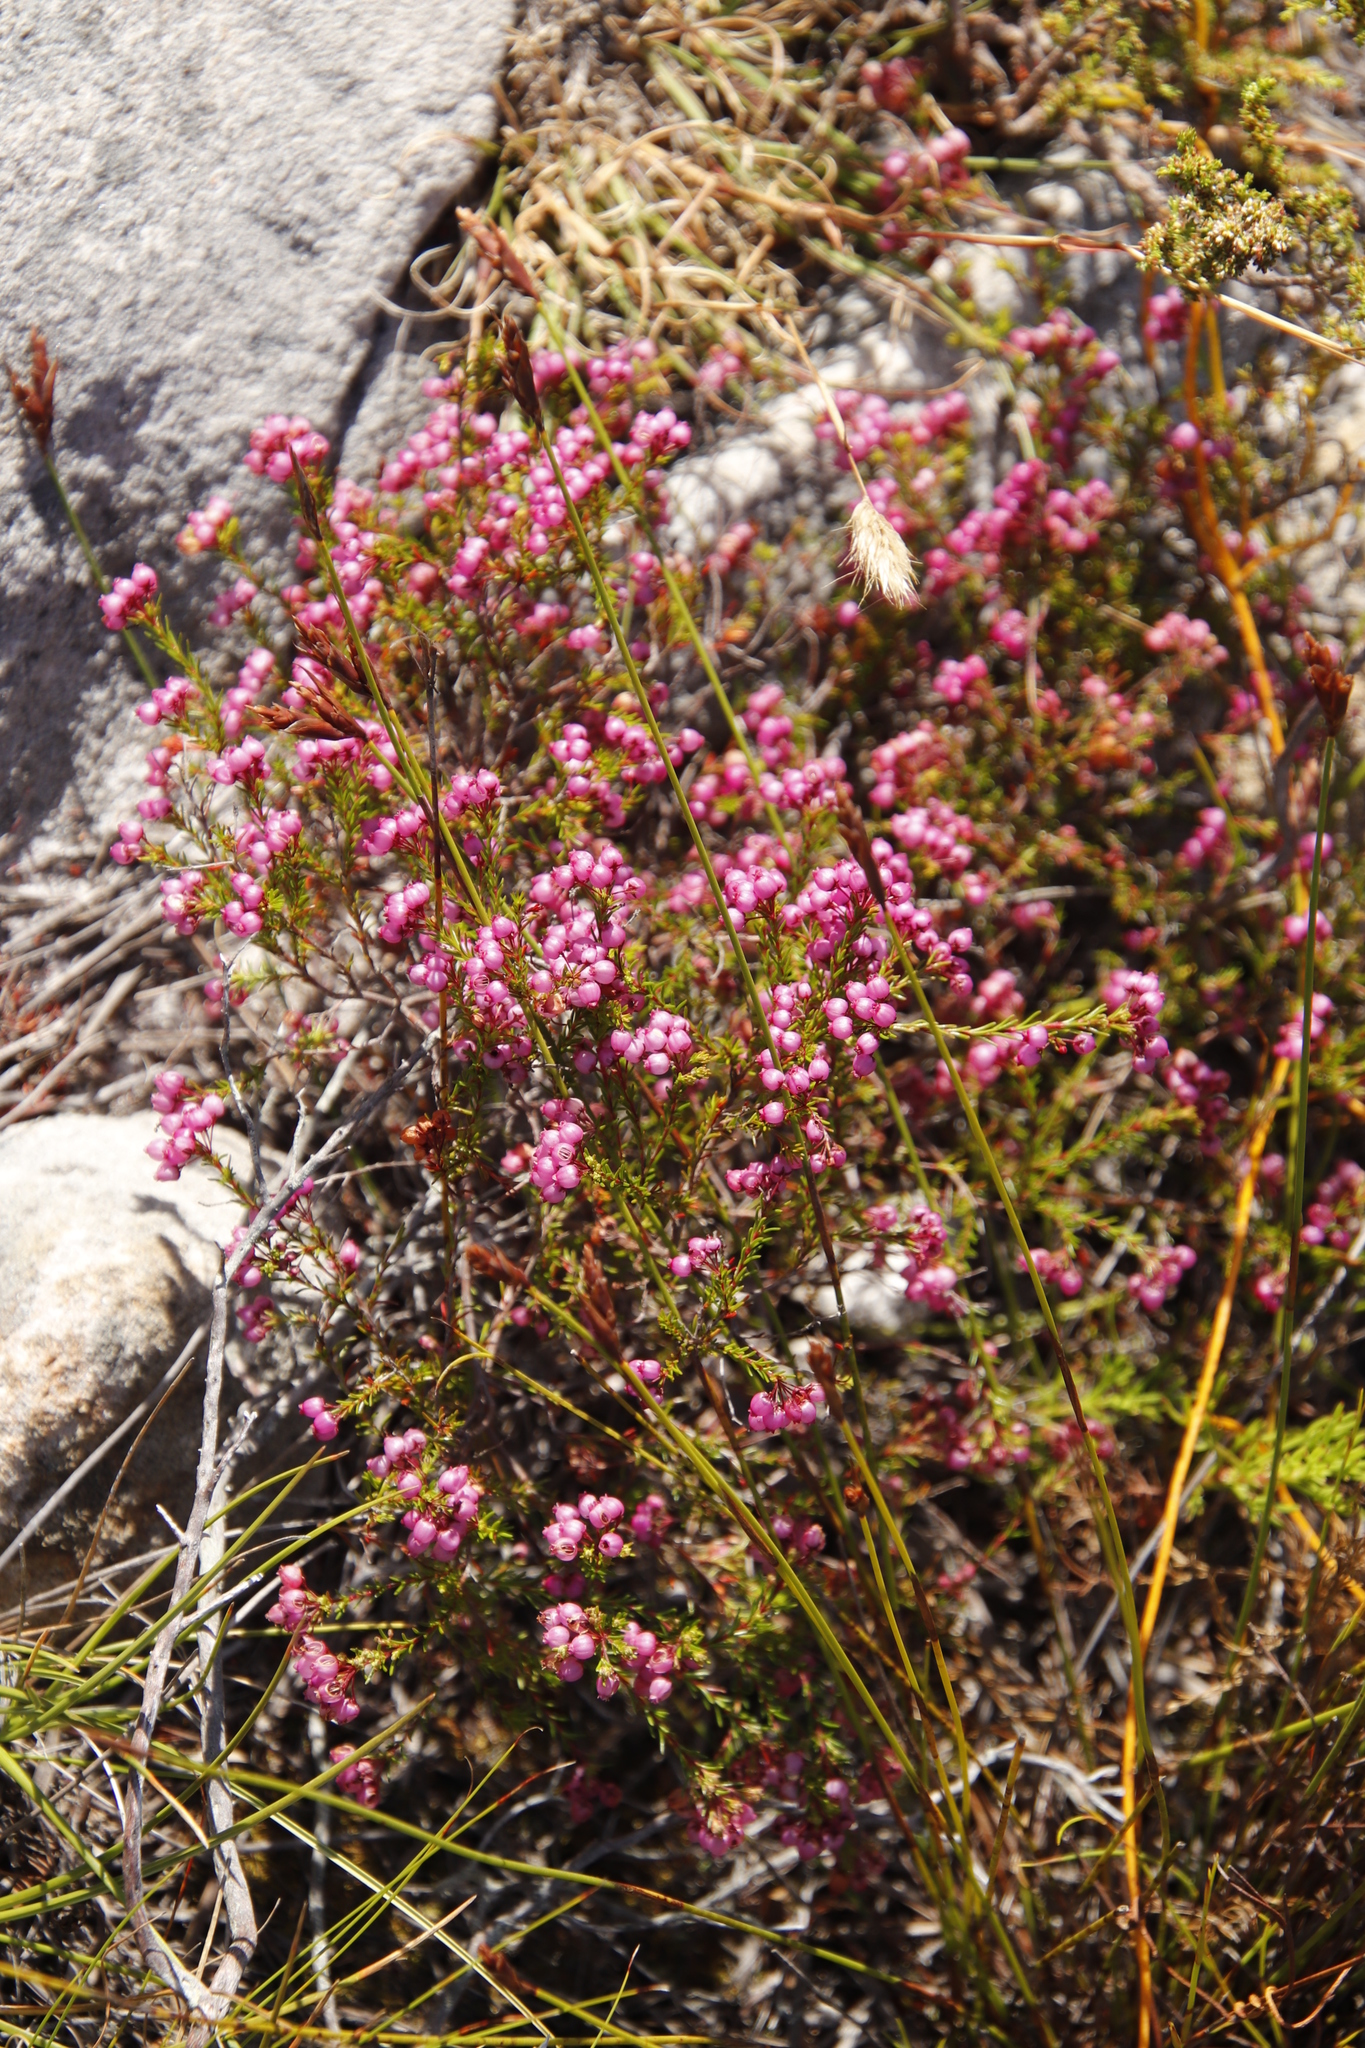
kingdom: Plantae
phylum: Tracheophyta
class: Magnoliopsida
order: Ericales
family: Ericaceae
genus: Erica
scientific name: Erica multumbellifera
